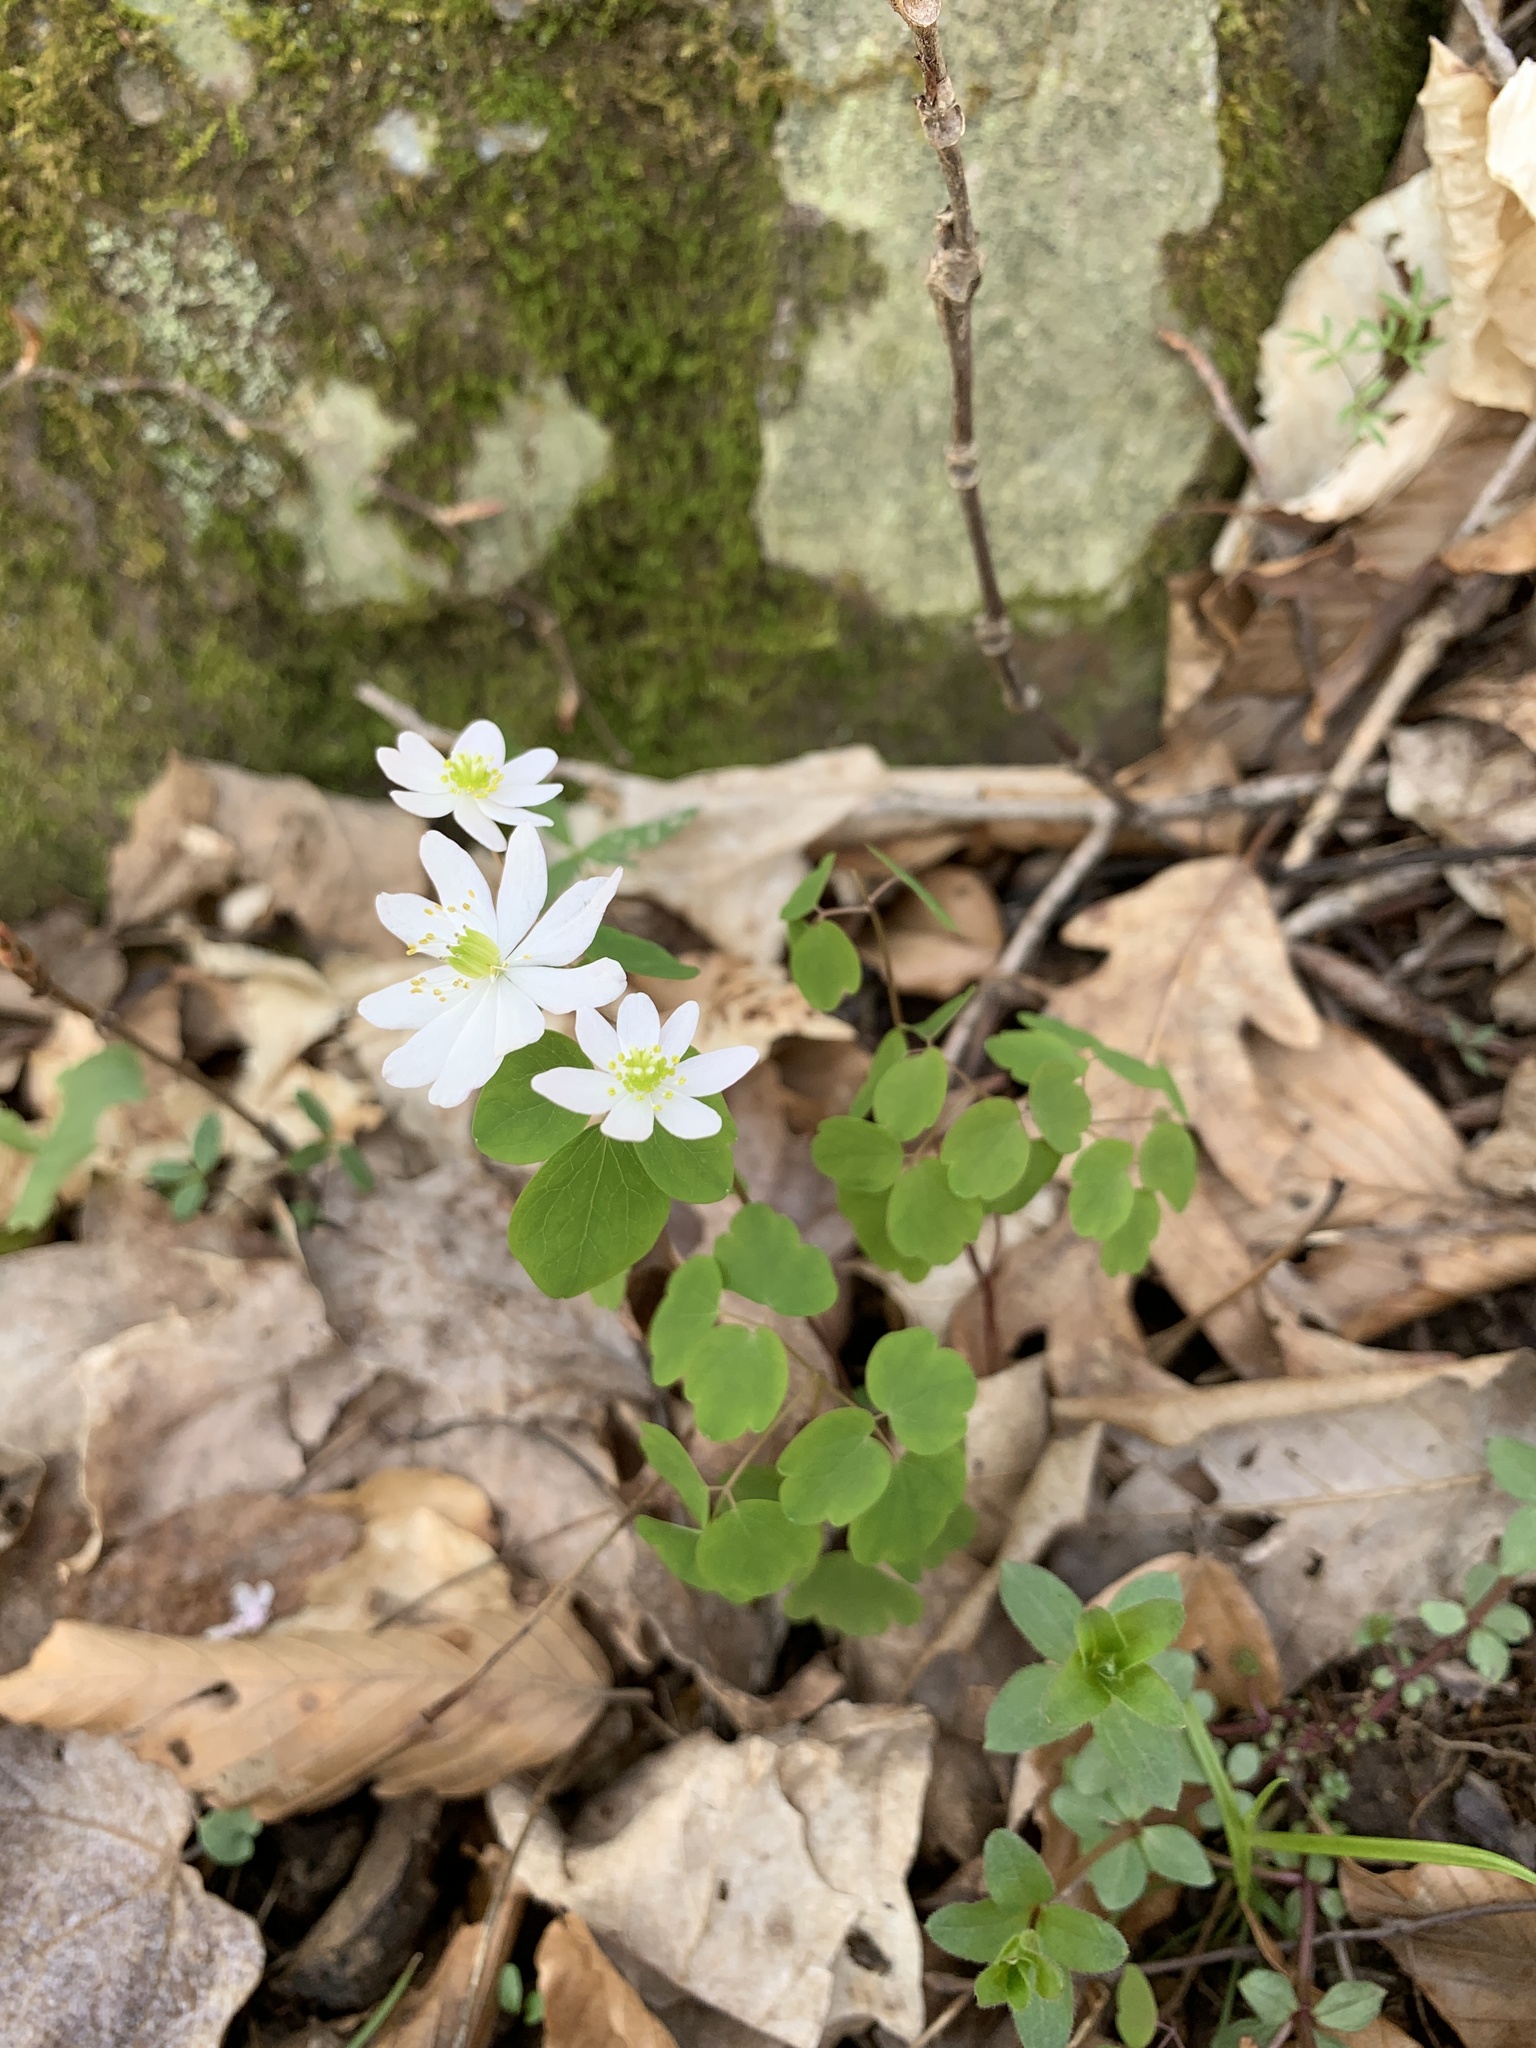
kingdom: Plantae
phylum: Tracheophyta
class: Magnoliopsida
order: Ranunculales
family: Ranunculaceae
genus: Thalictrum
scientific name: Thalictrum thalictroides
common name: Rue-anemone
